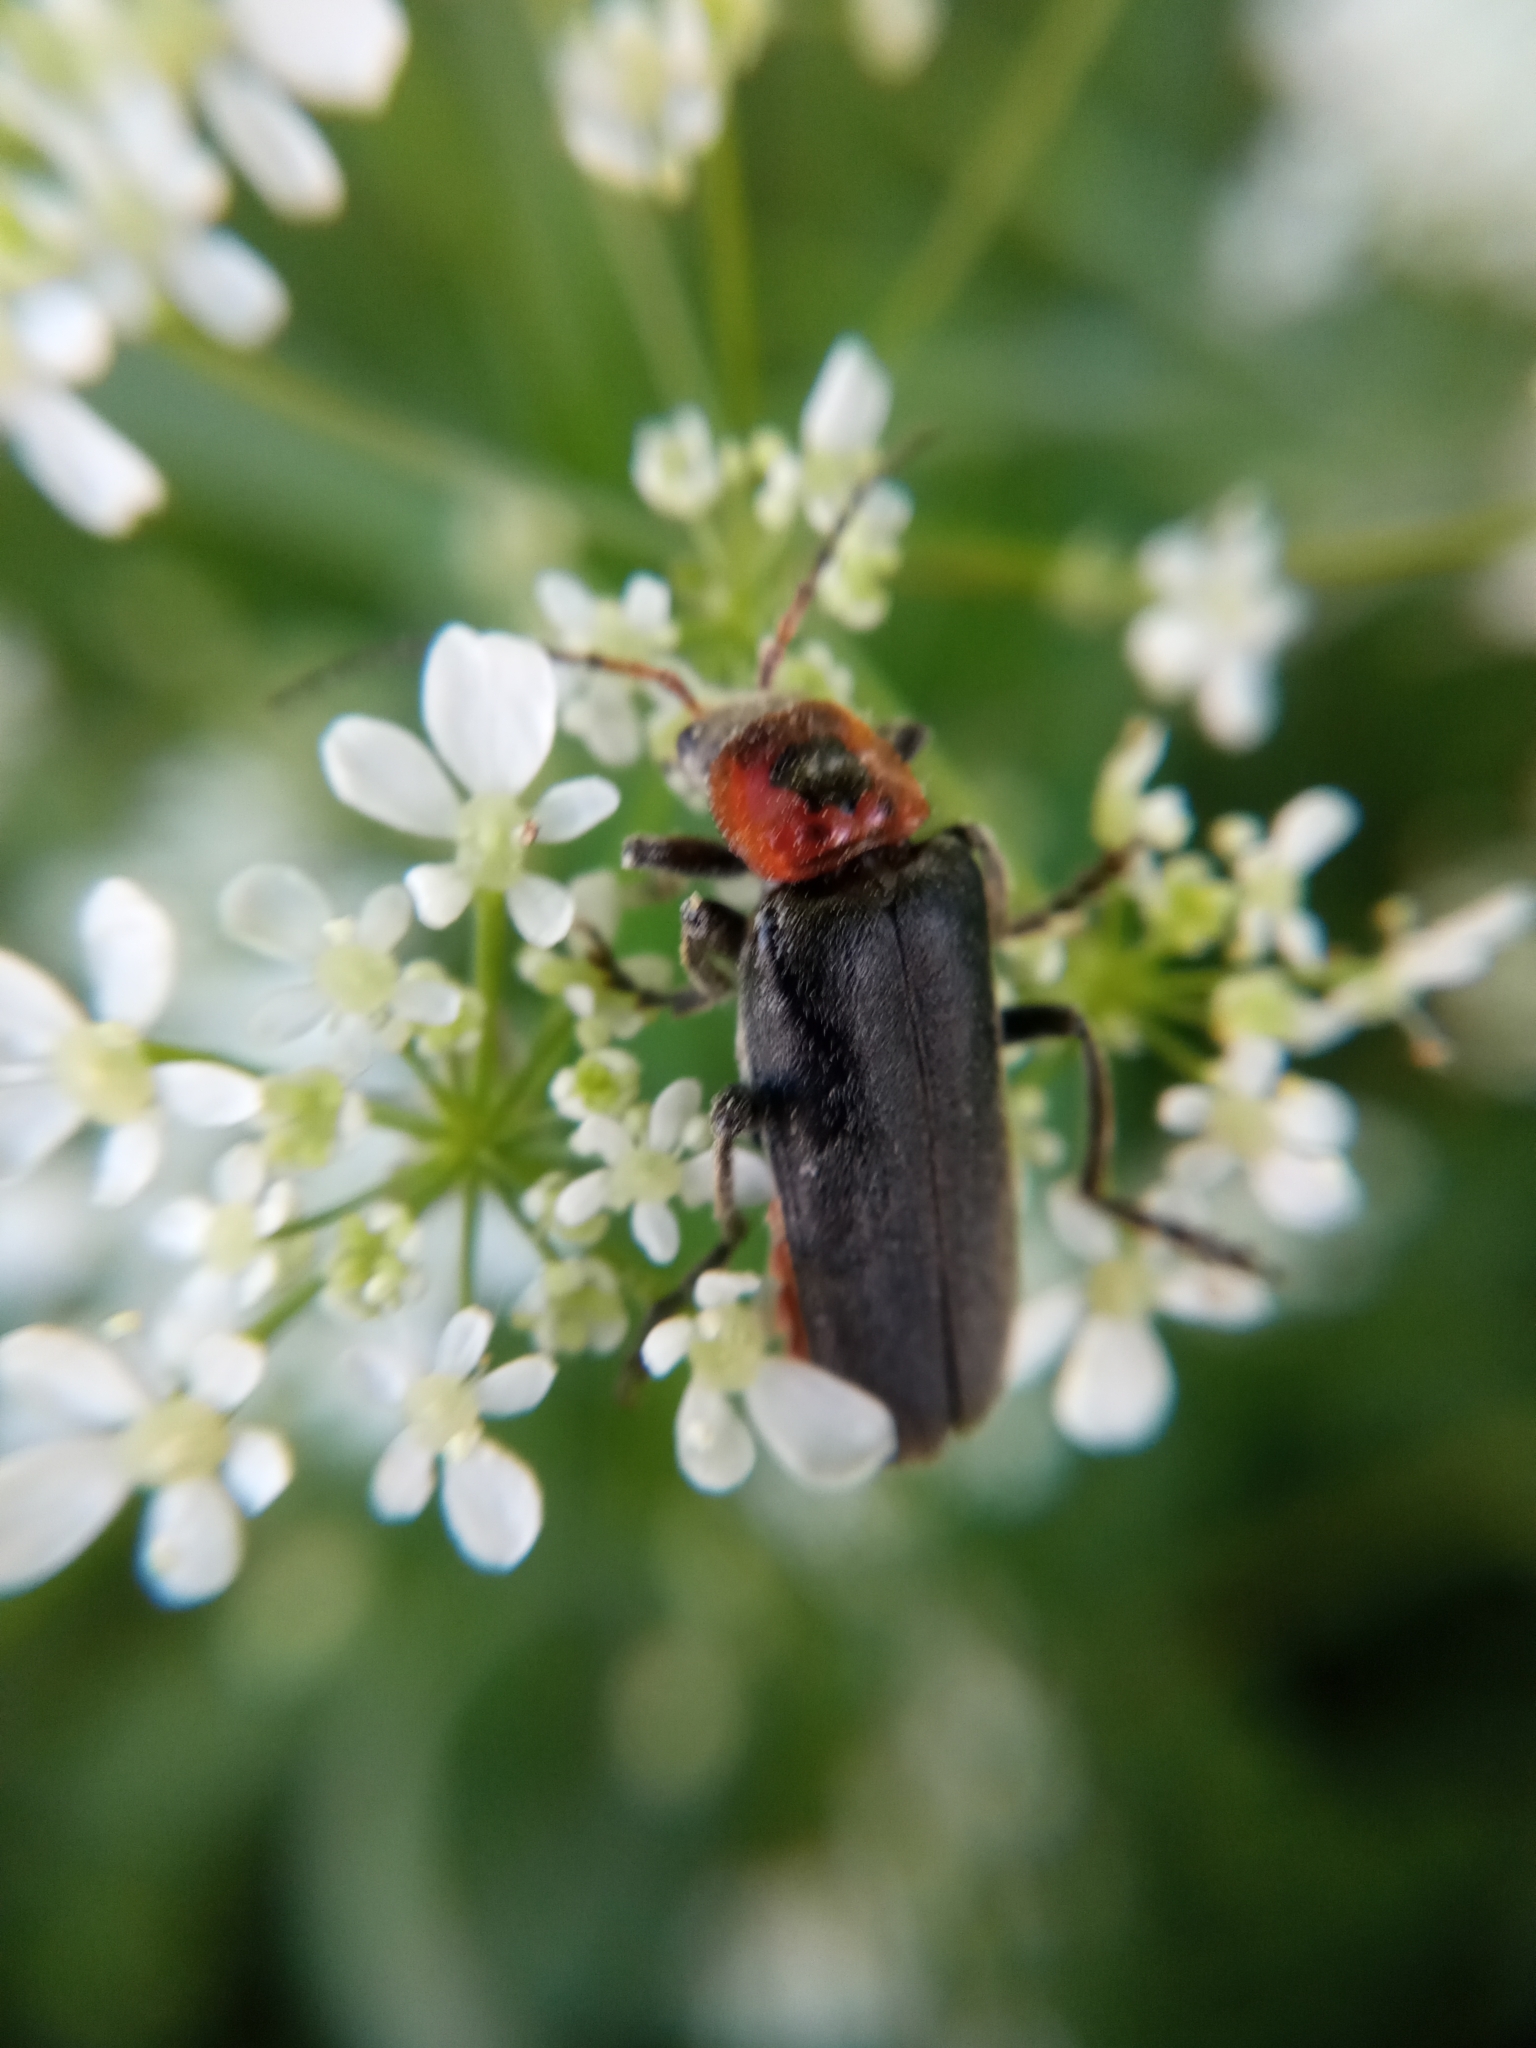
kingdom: Animalia
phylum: Arthropoda
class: Insecta
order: Coleoptera
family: Cantharidae
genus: Cantharis
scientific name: Cantharis rustica
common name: Soldier beetle
